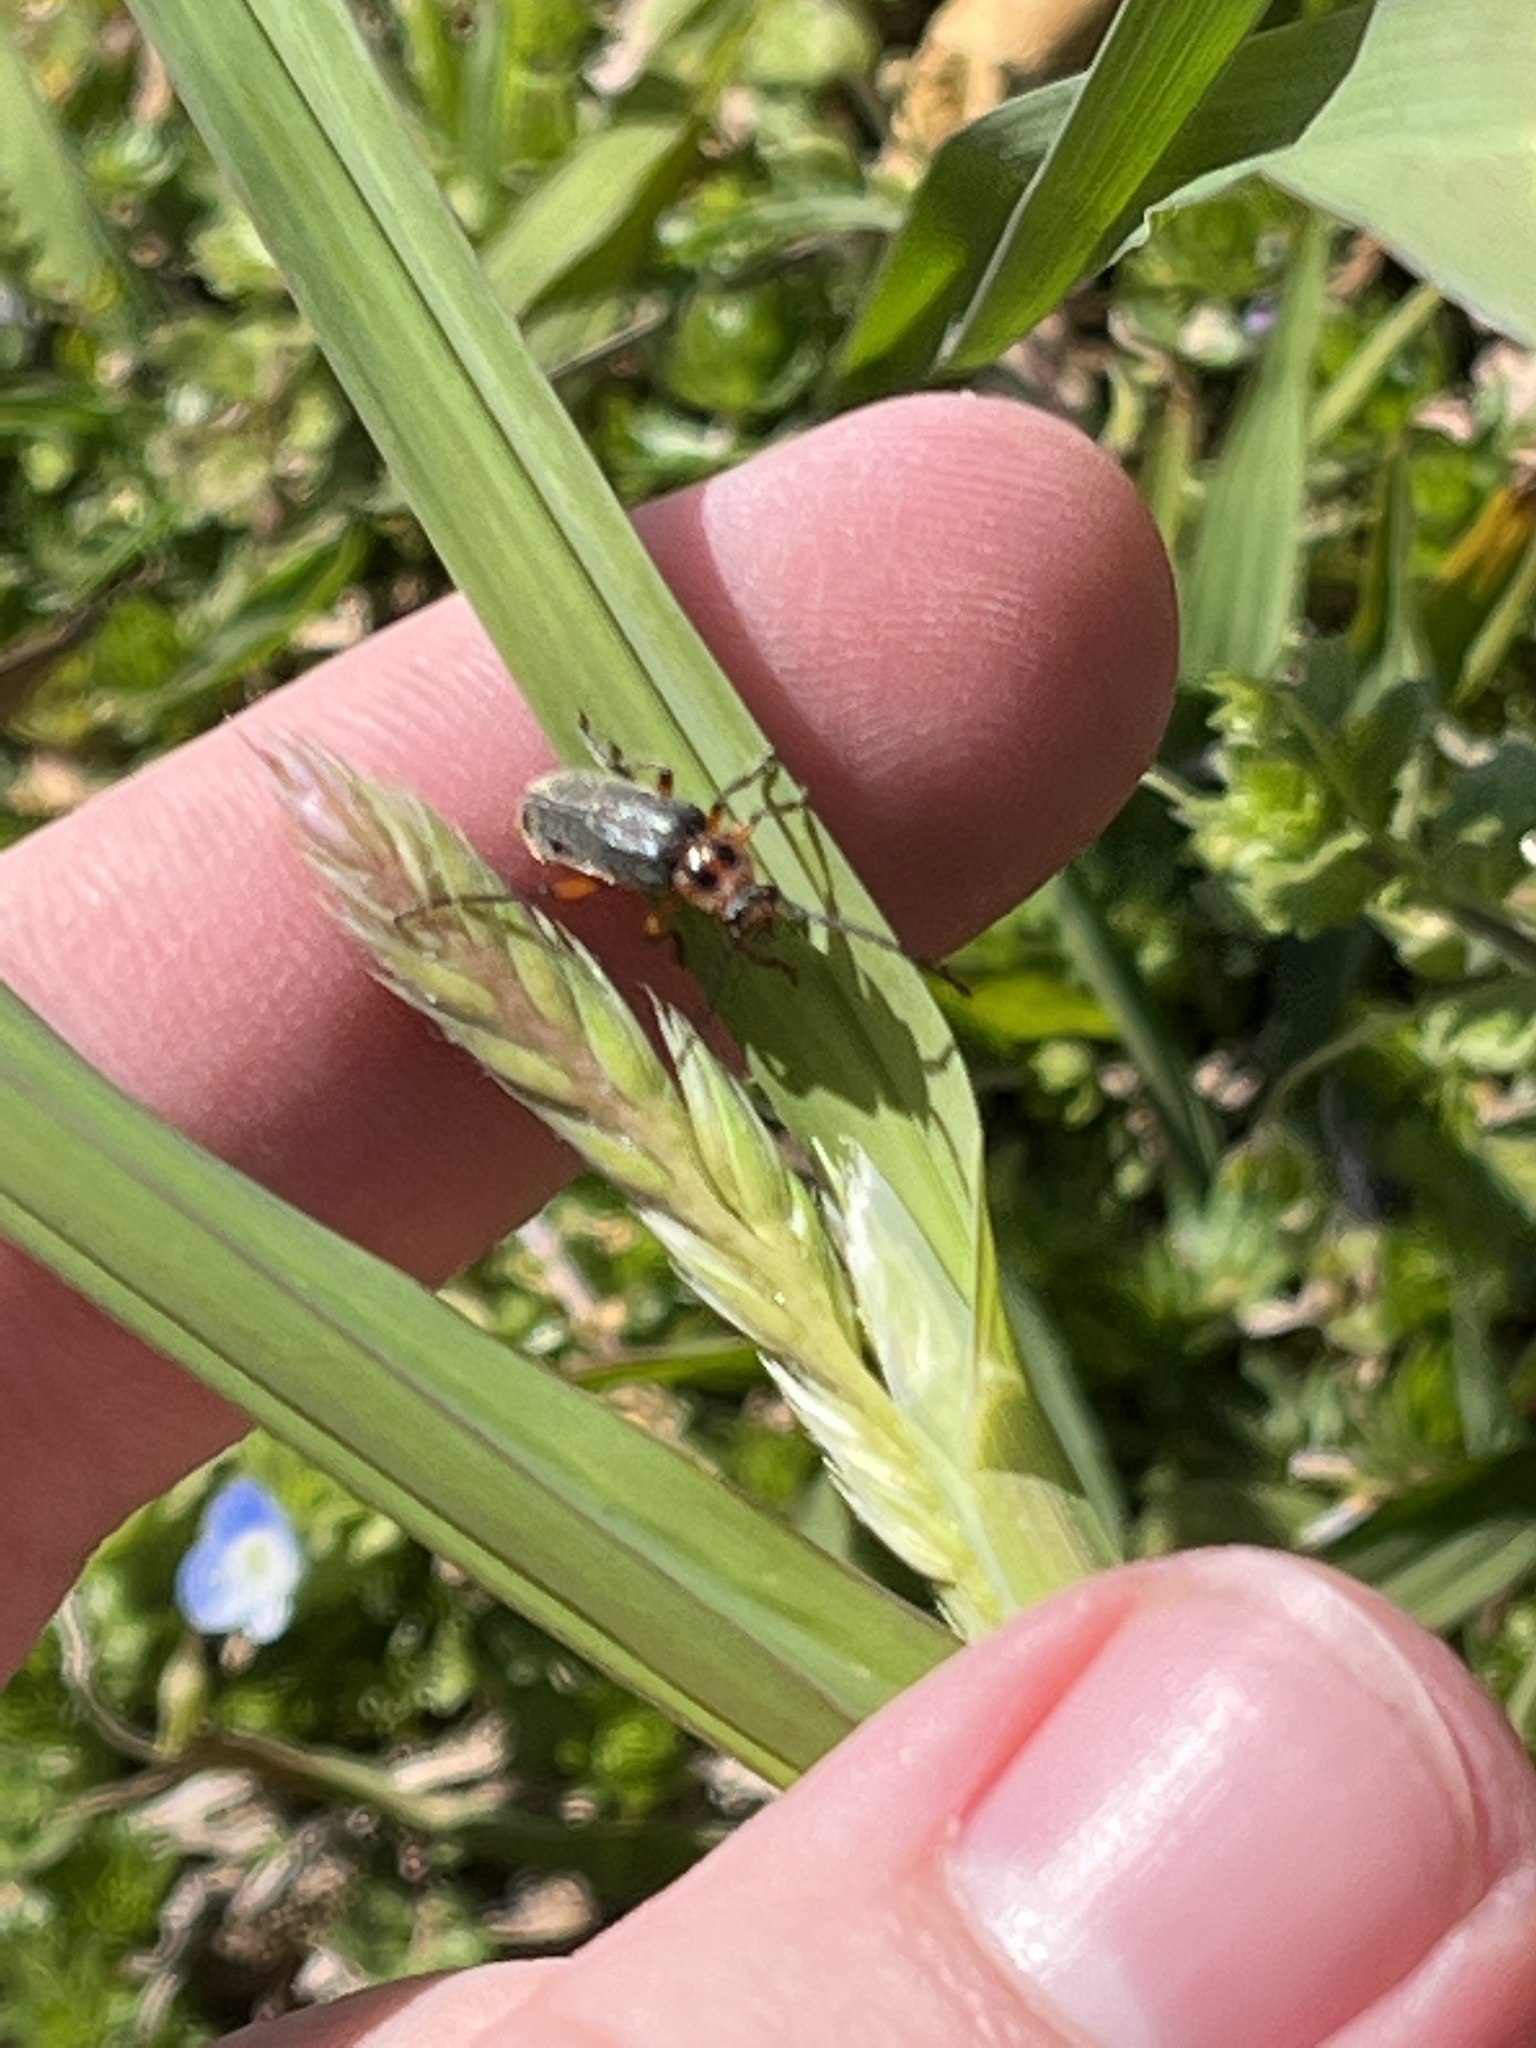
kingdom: Animalia
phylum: Arthropoda
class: Insecta
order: Coleoptera
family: Cantharidae
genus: Atalantycha
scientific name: Atalantycha bilineata
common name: Two-lined leatherwing
